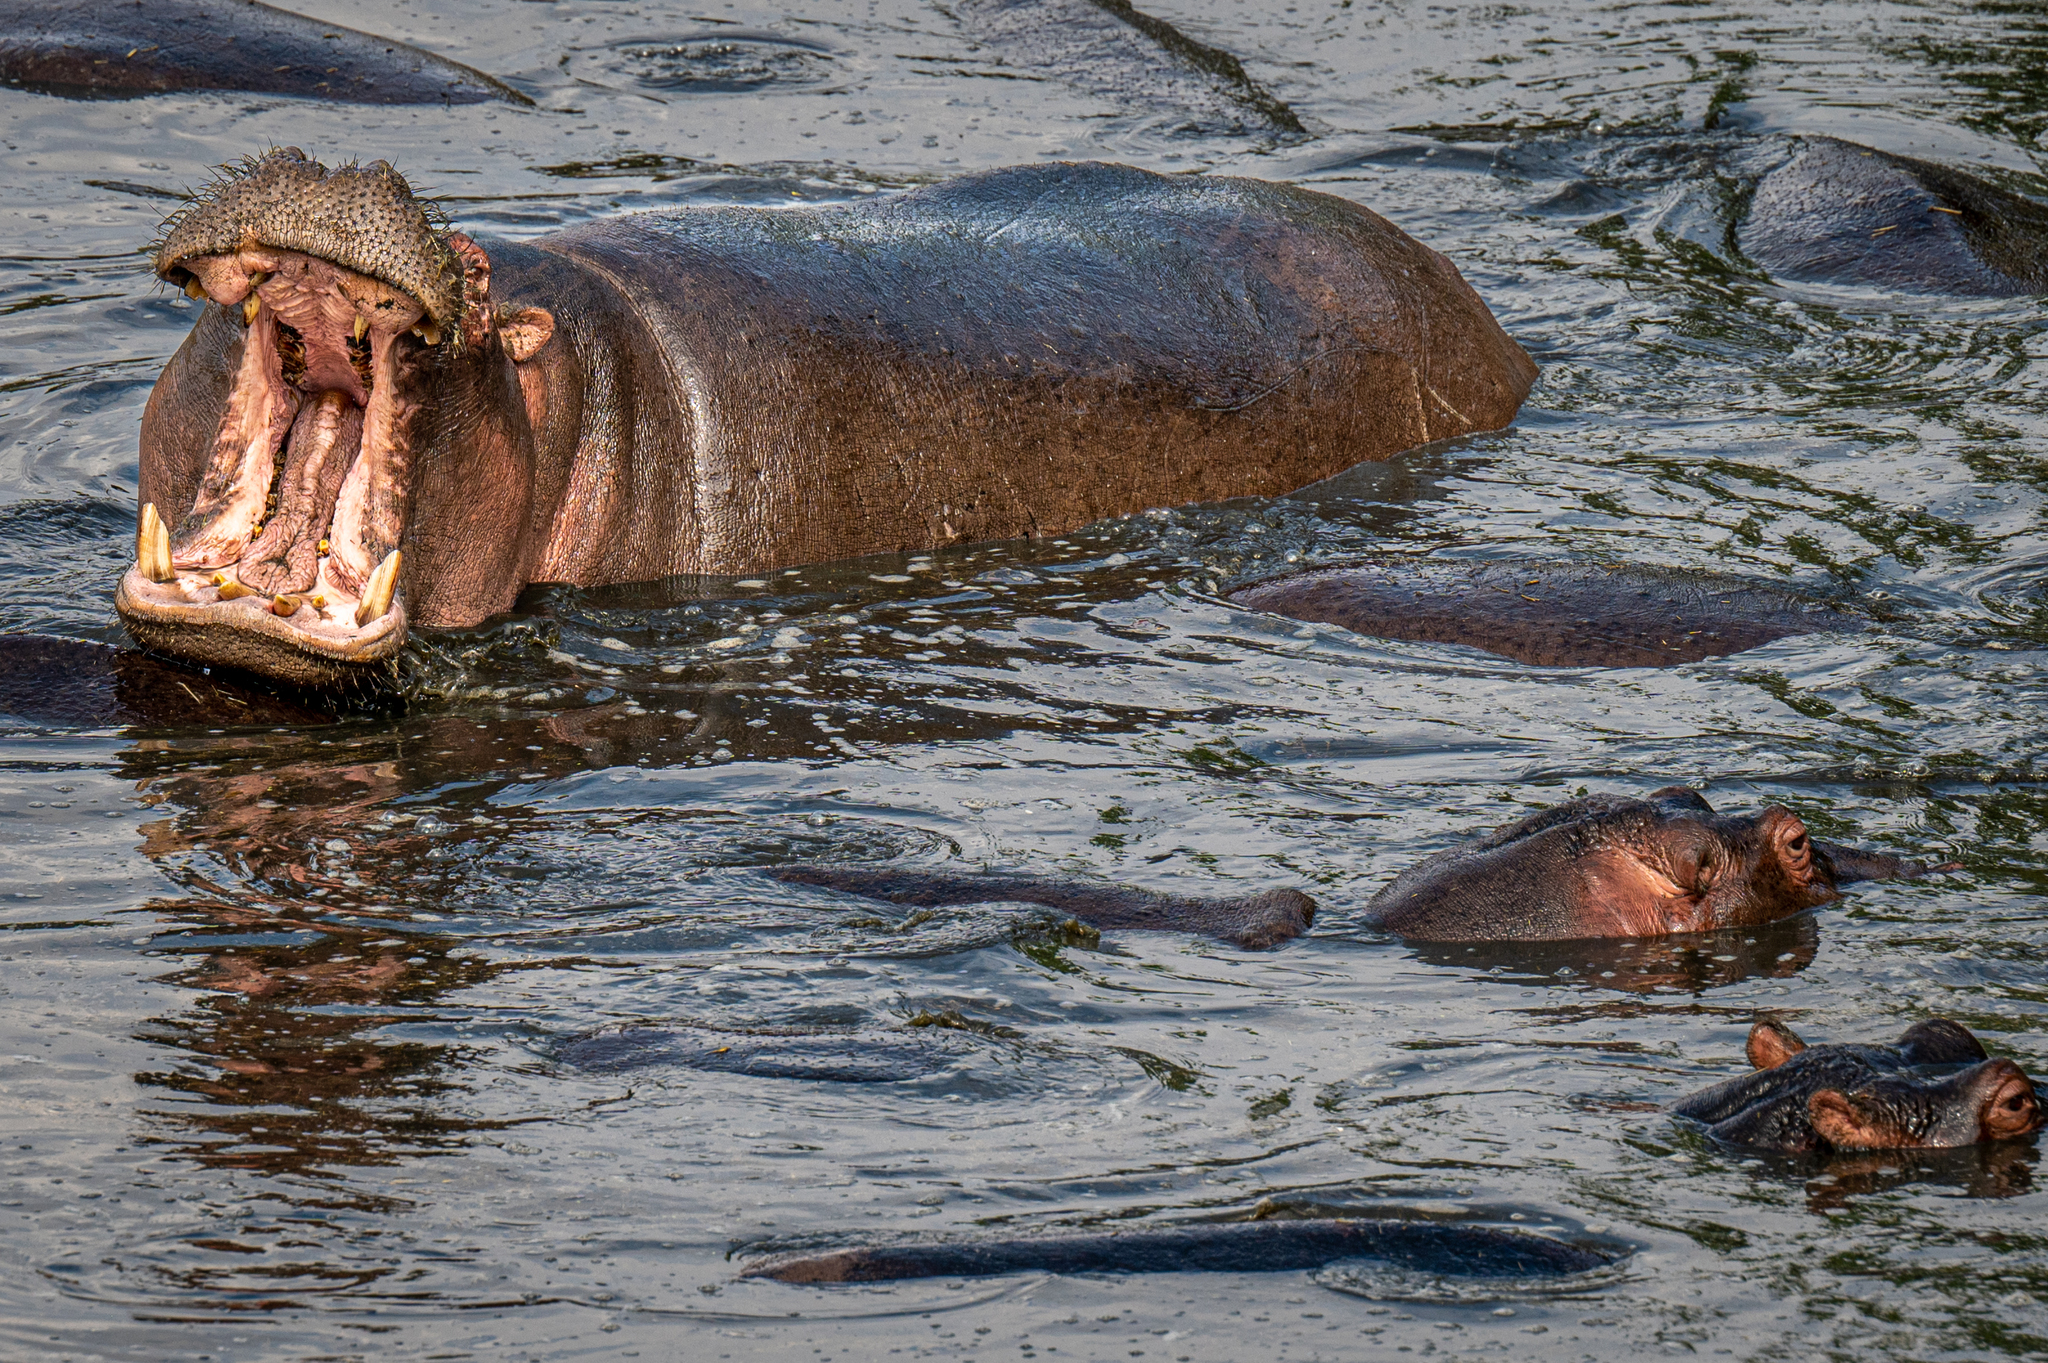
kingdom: Animalia
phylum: Chordata
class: Mammalia
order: Artiodactyla
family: Hippopotamidae
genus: Hippopotamus
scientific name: Hippopotamus amphibius
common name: Common hippopotamus
